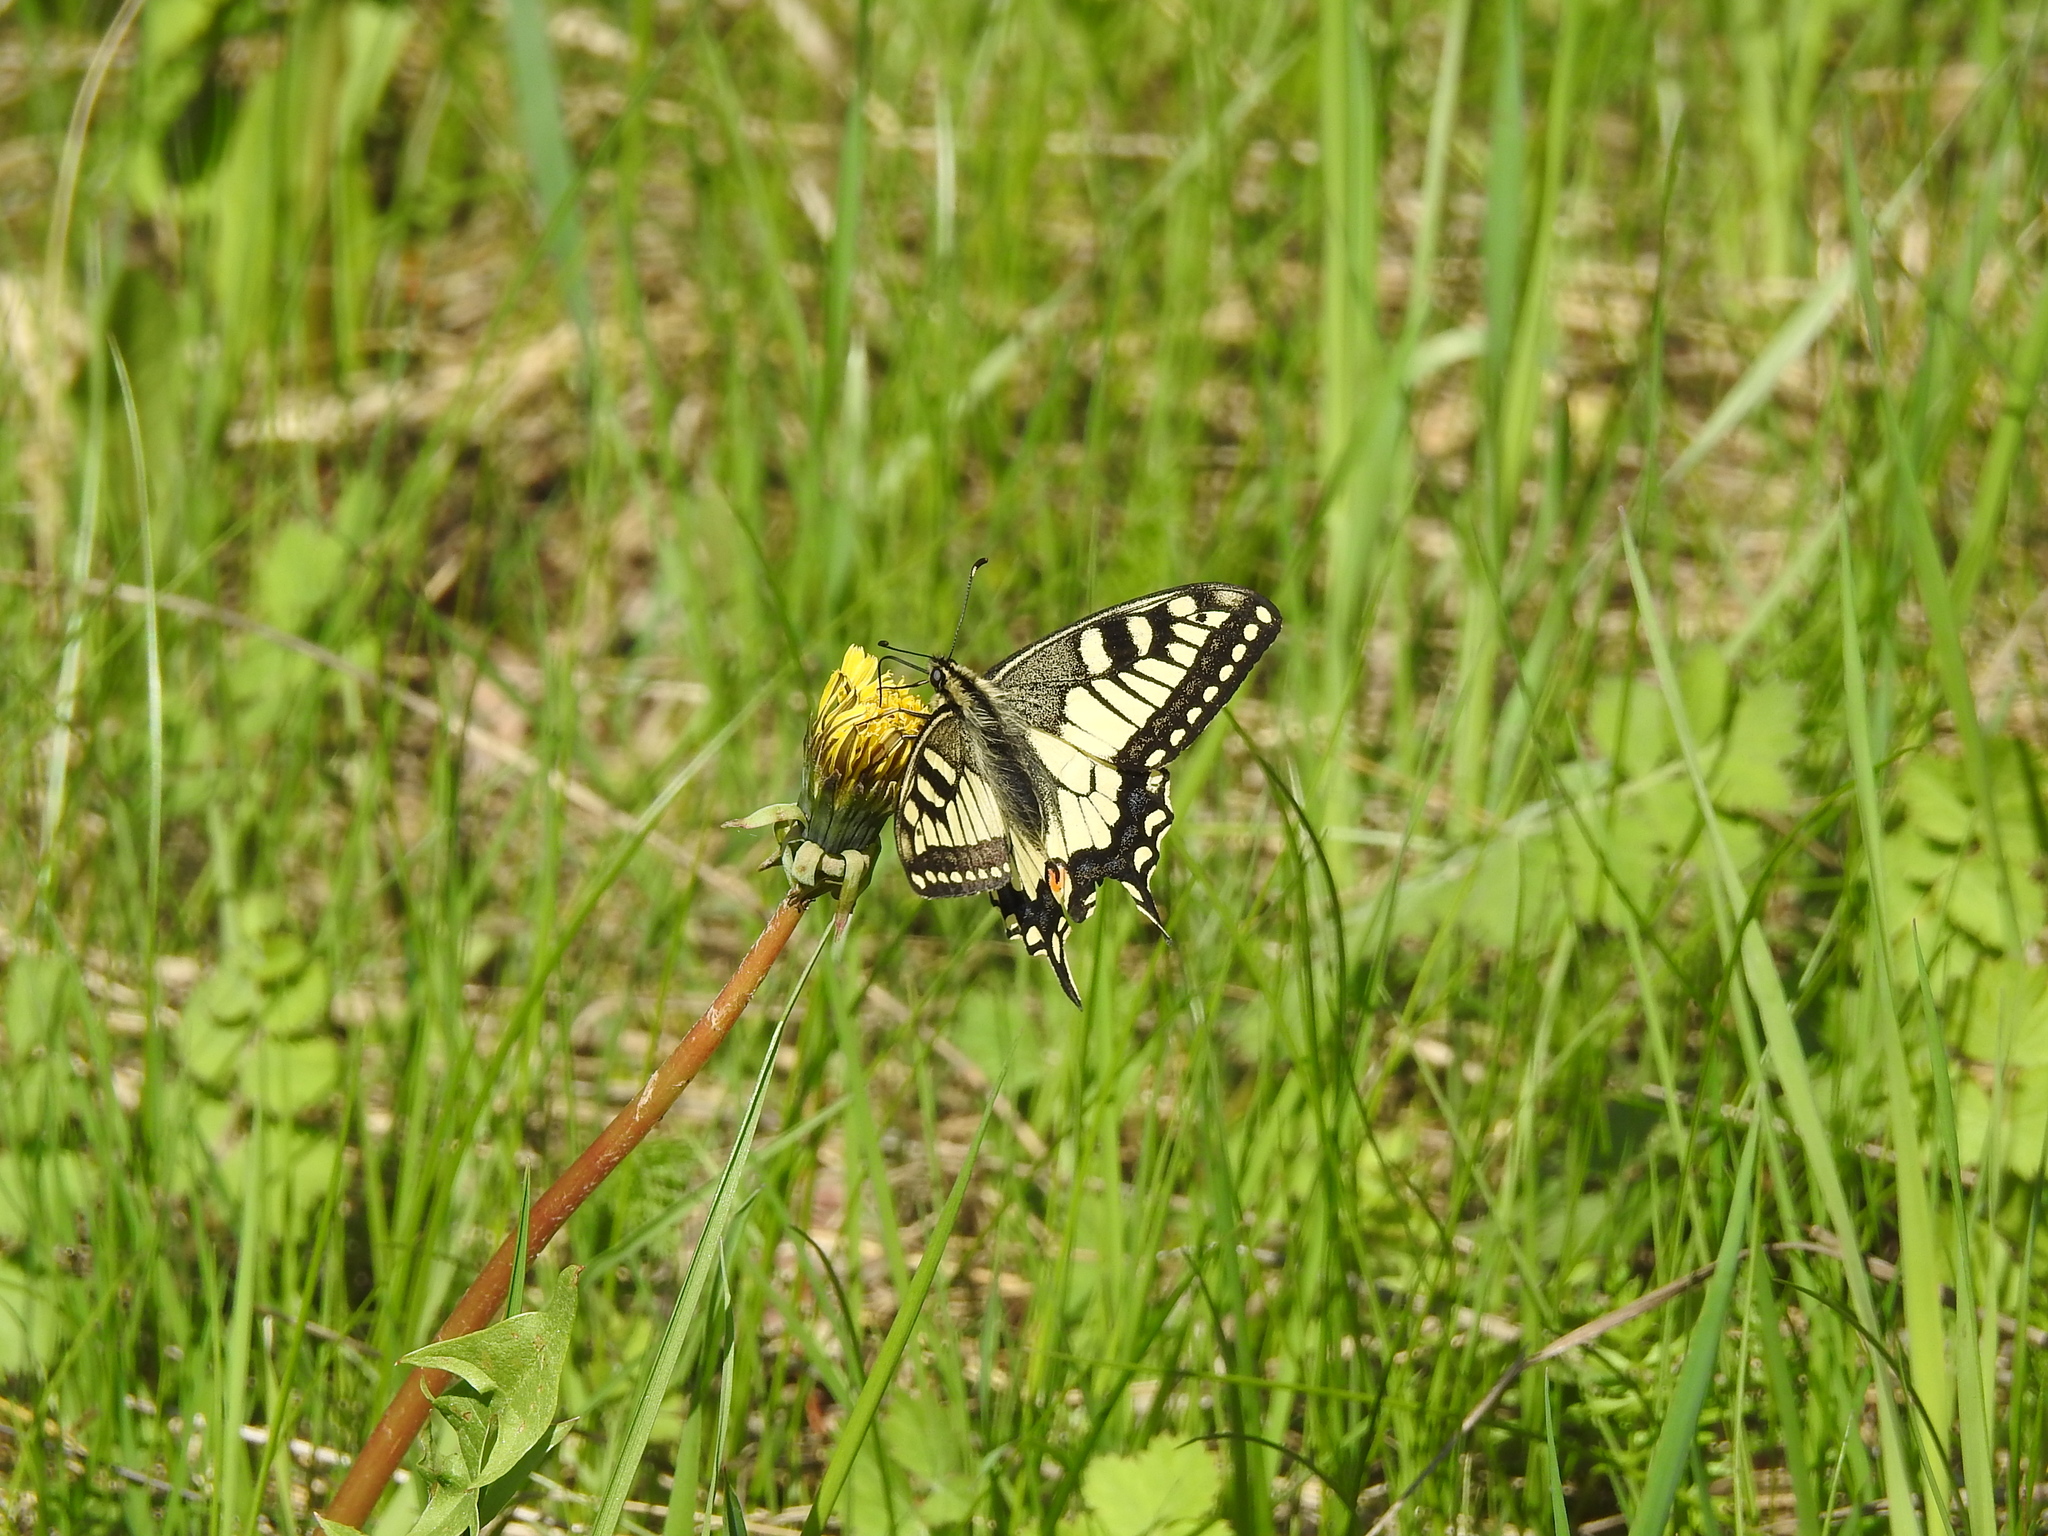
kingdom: Animalia
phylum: Arthropoda
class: Insecta
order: Lepidoptera
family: Papilionidae
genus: Papilio
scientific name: Papilio machaon
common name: Swallowtail
